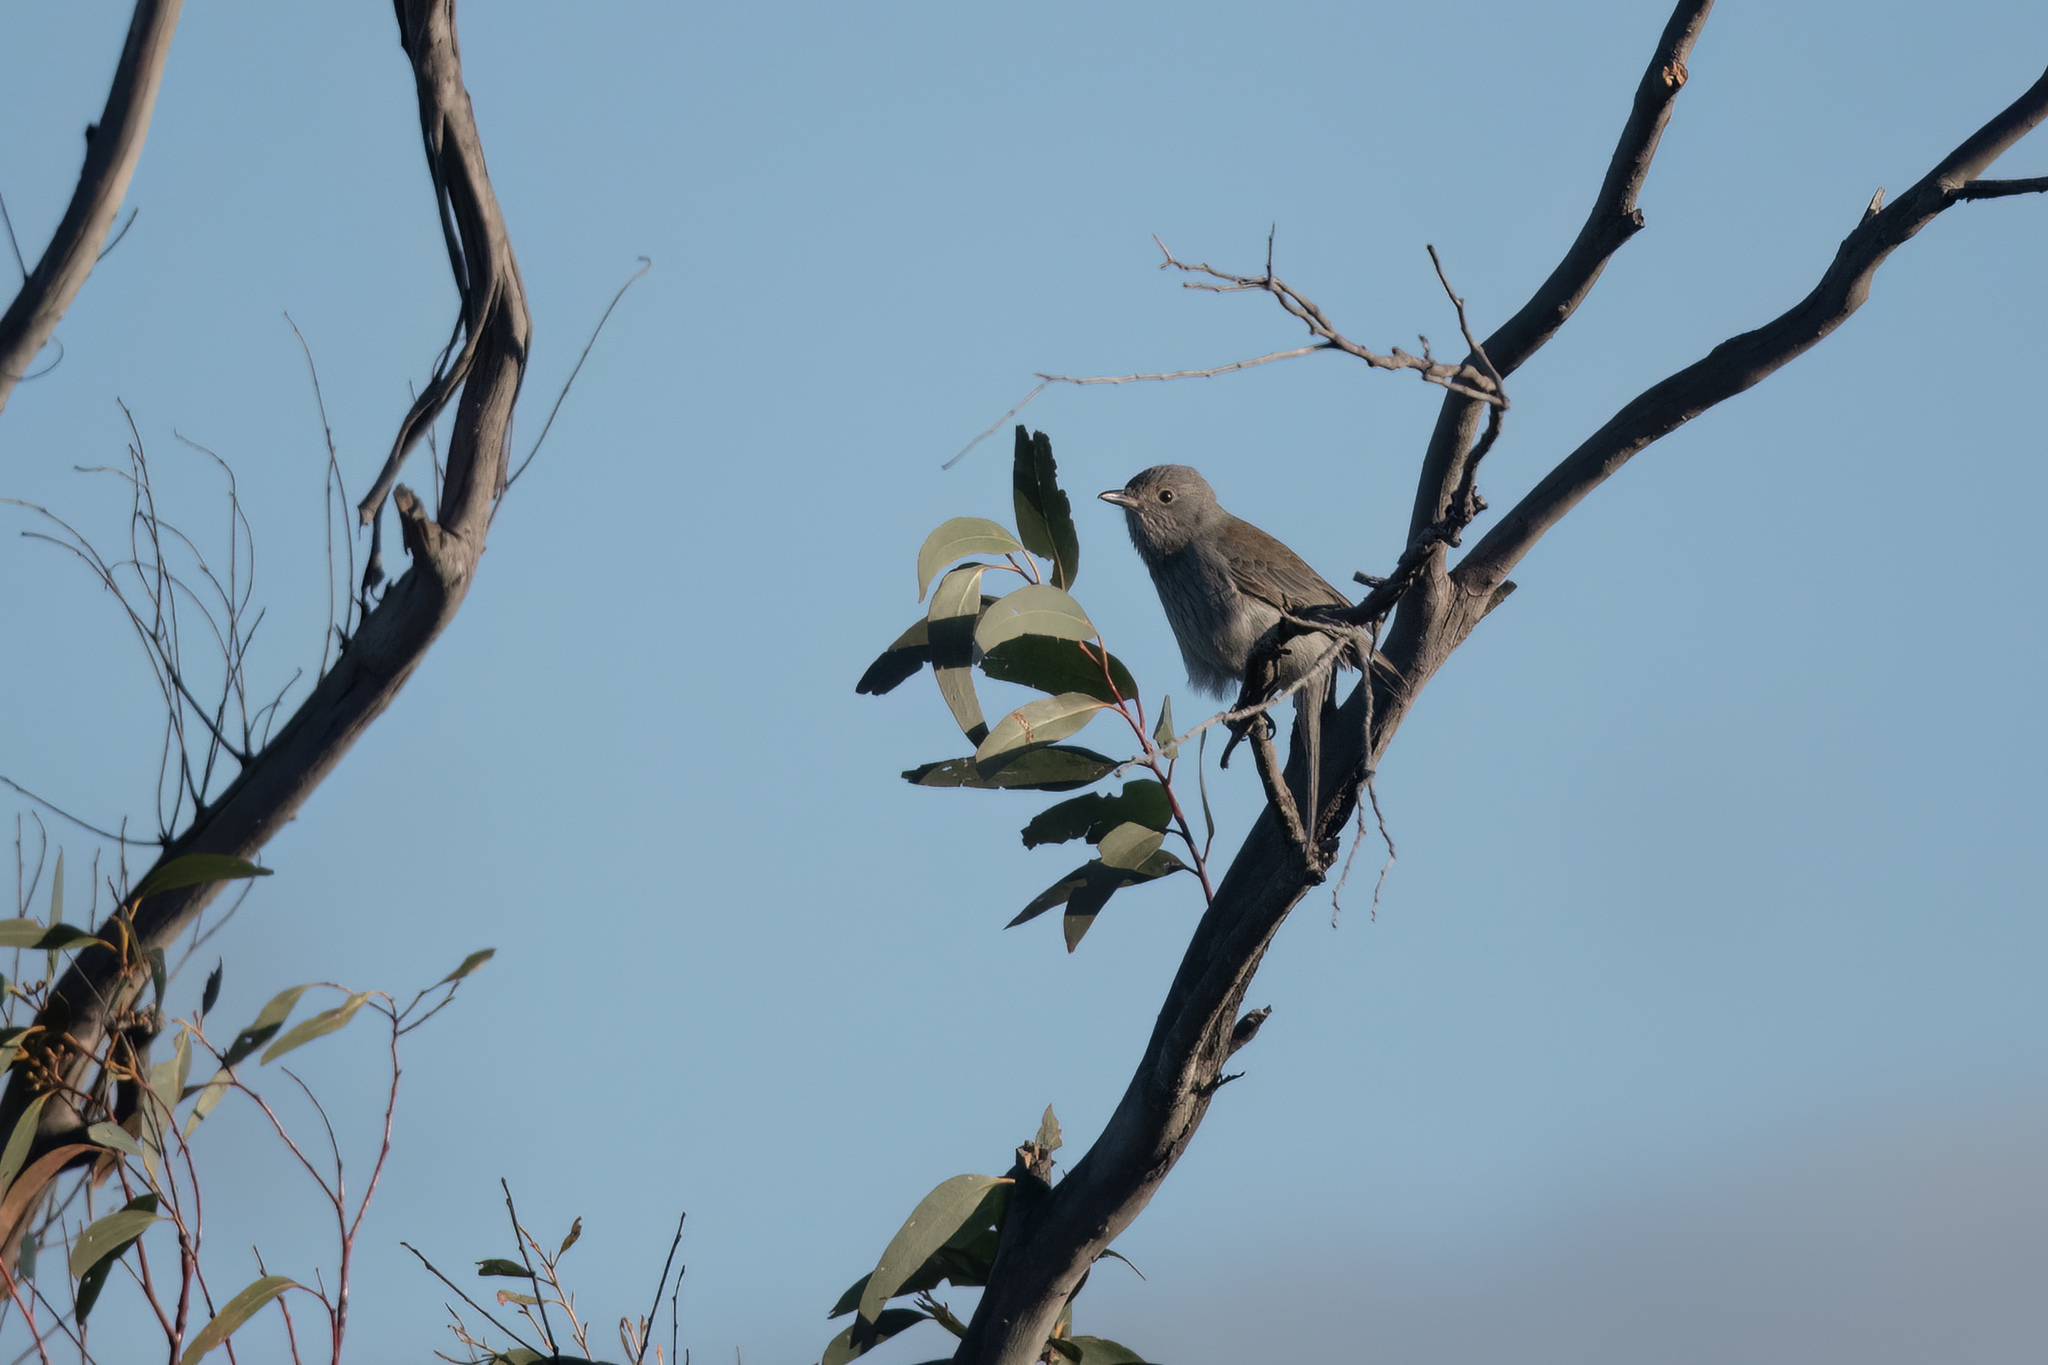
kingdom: Animalia
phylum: Chordata
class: Aves
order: Passeriformes
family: Pachycephalidae
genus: Colluricincla
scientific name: Colluricincla harmonica
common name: Grey shrikethrush
